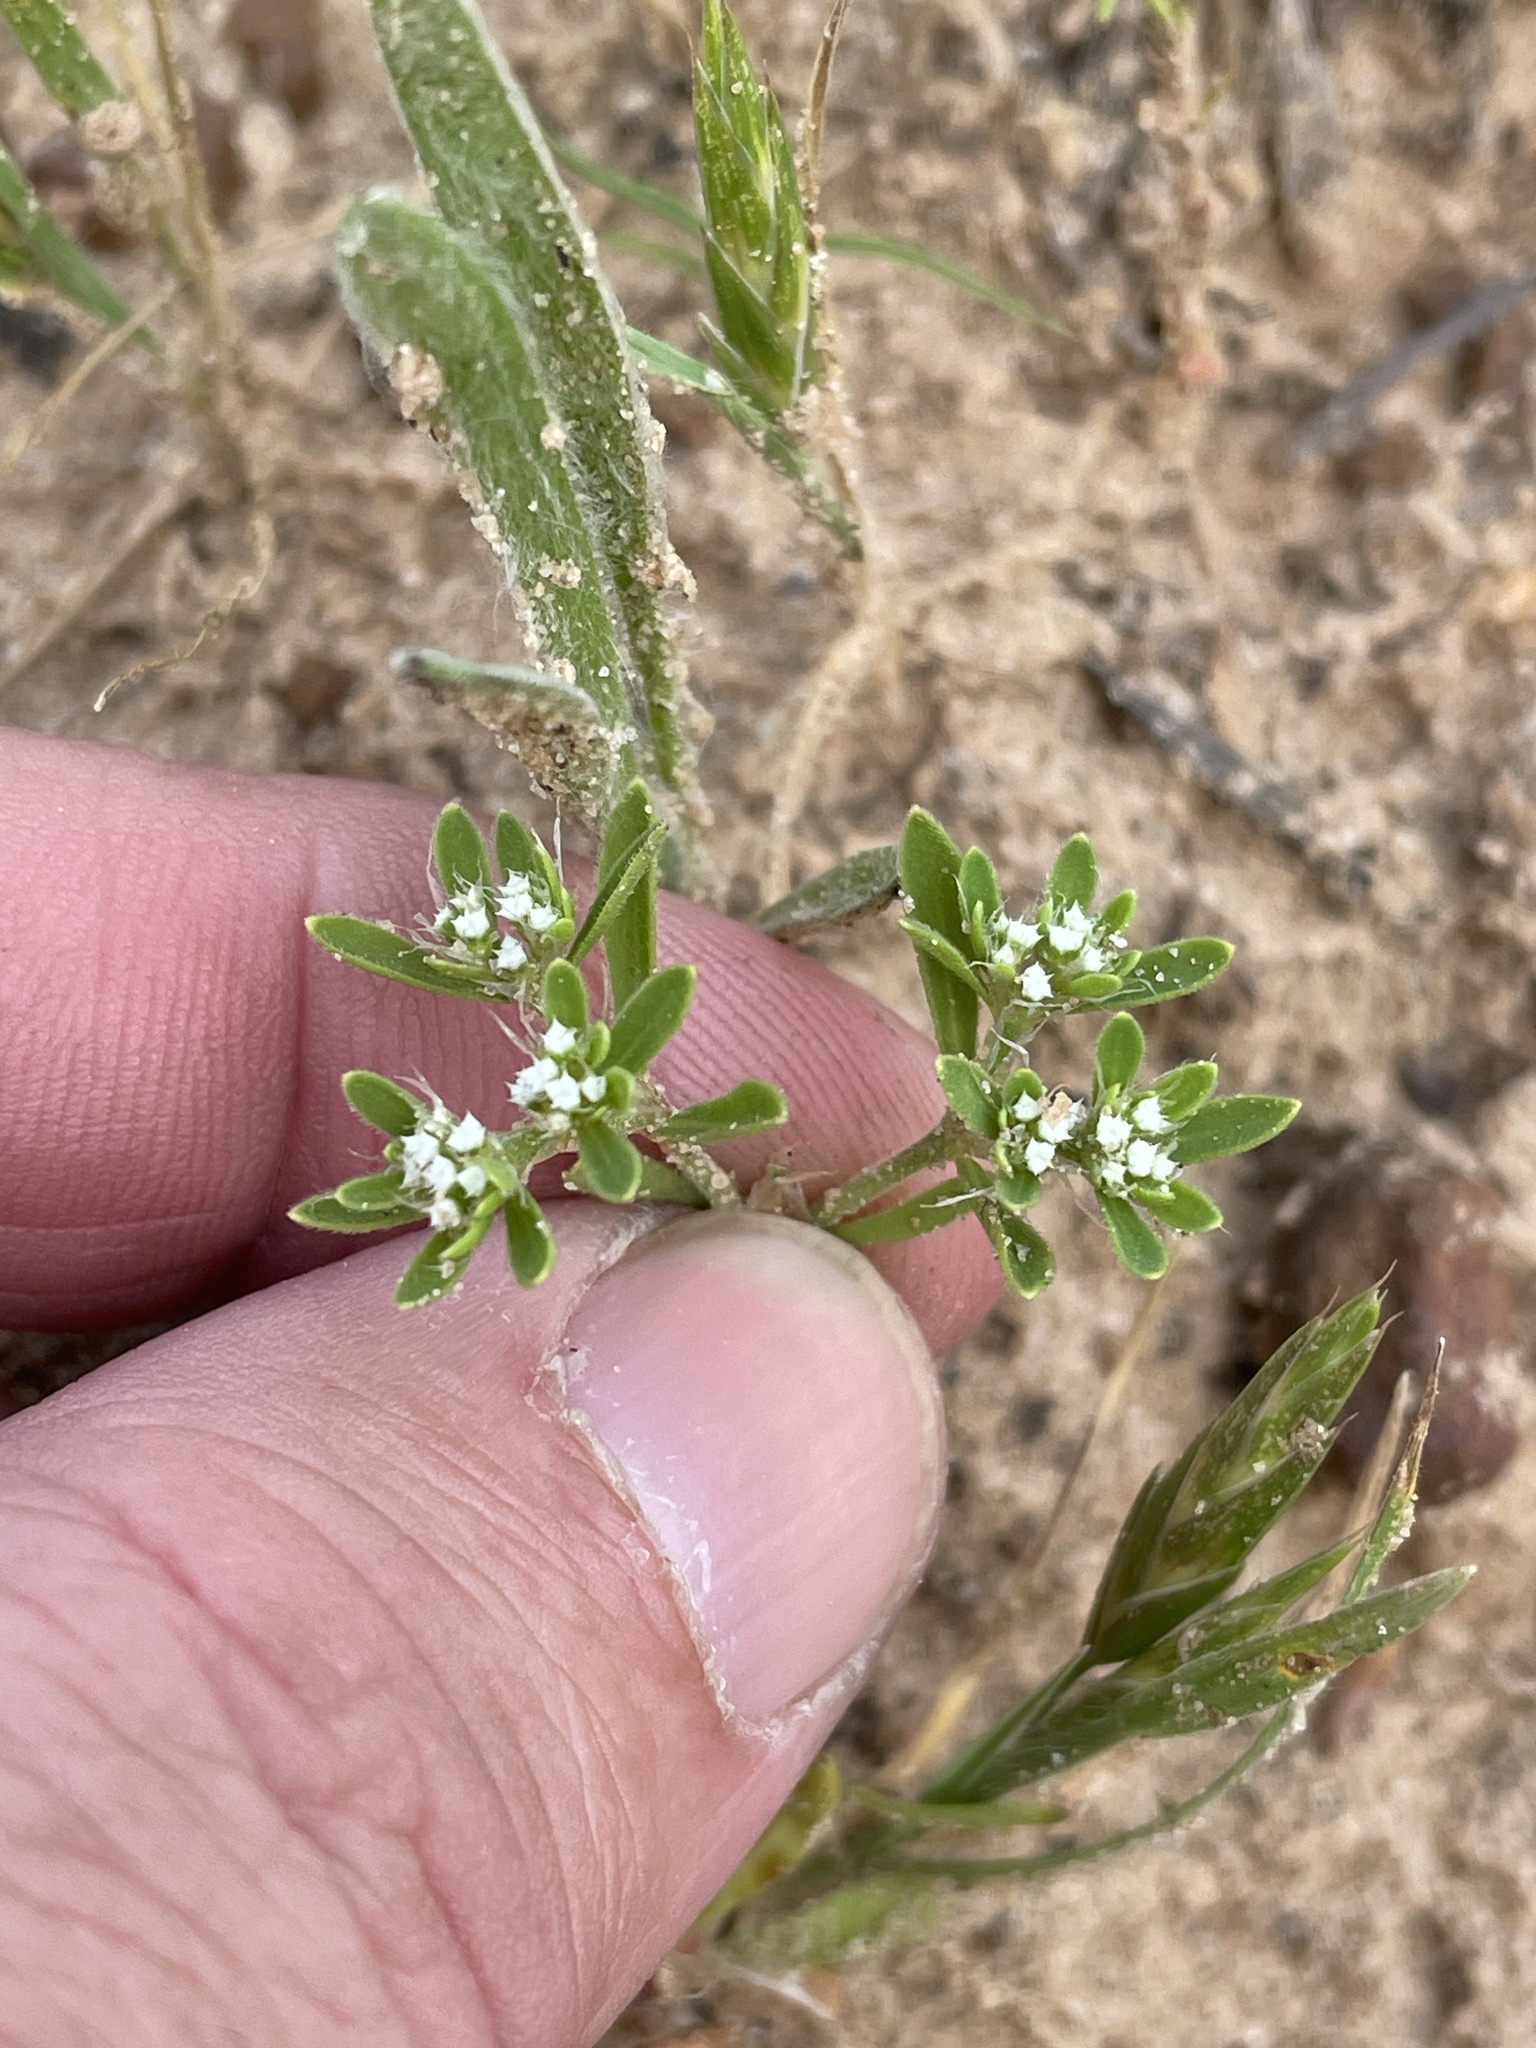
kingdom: Plantae
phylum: Tracheophyta
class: Magnoliopsida
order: Caryophyllales
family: Caryophyllaceae
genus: Paronychia
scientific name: Paronychia drummondii
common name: Drummond's nailwort
